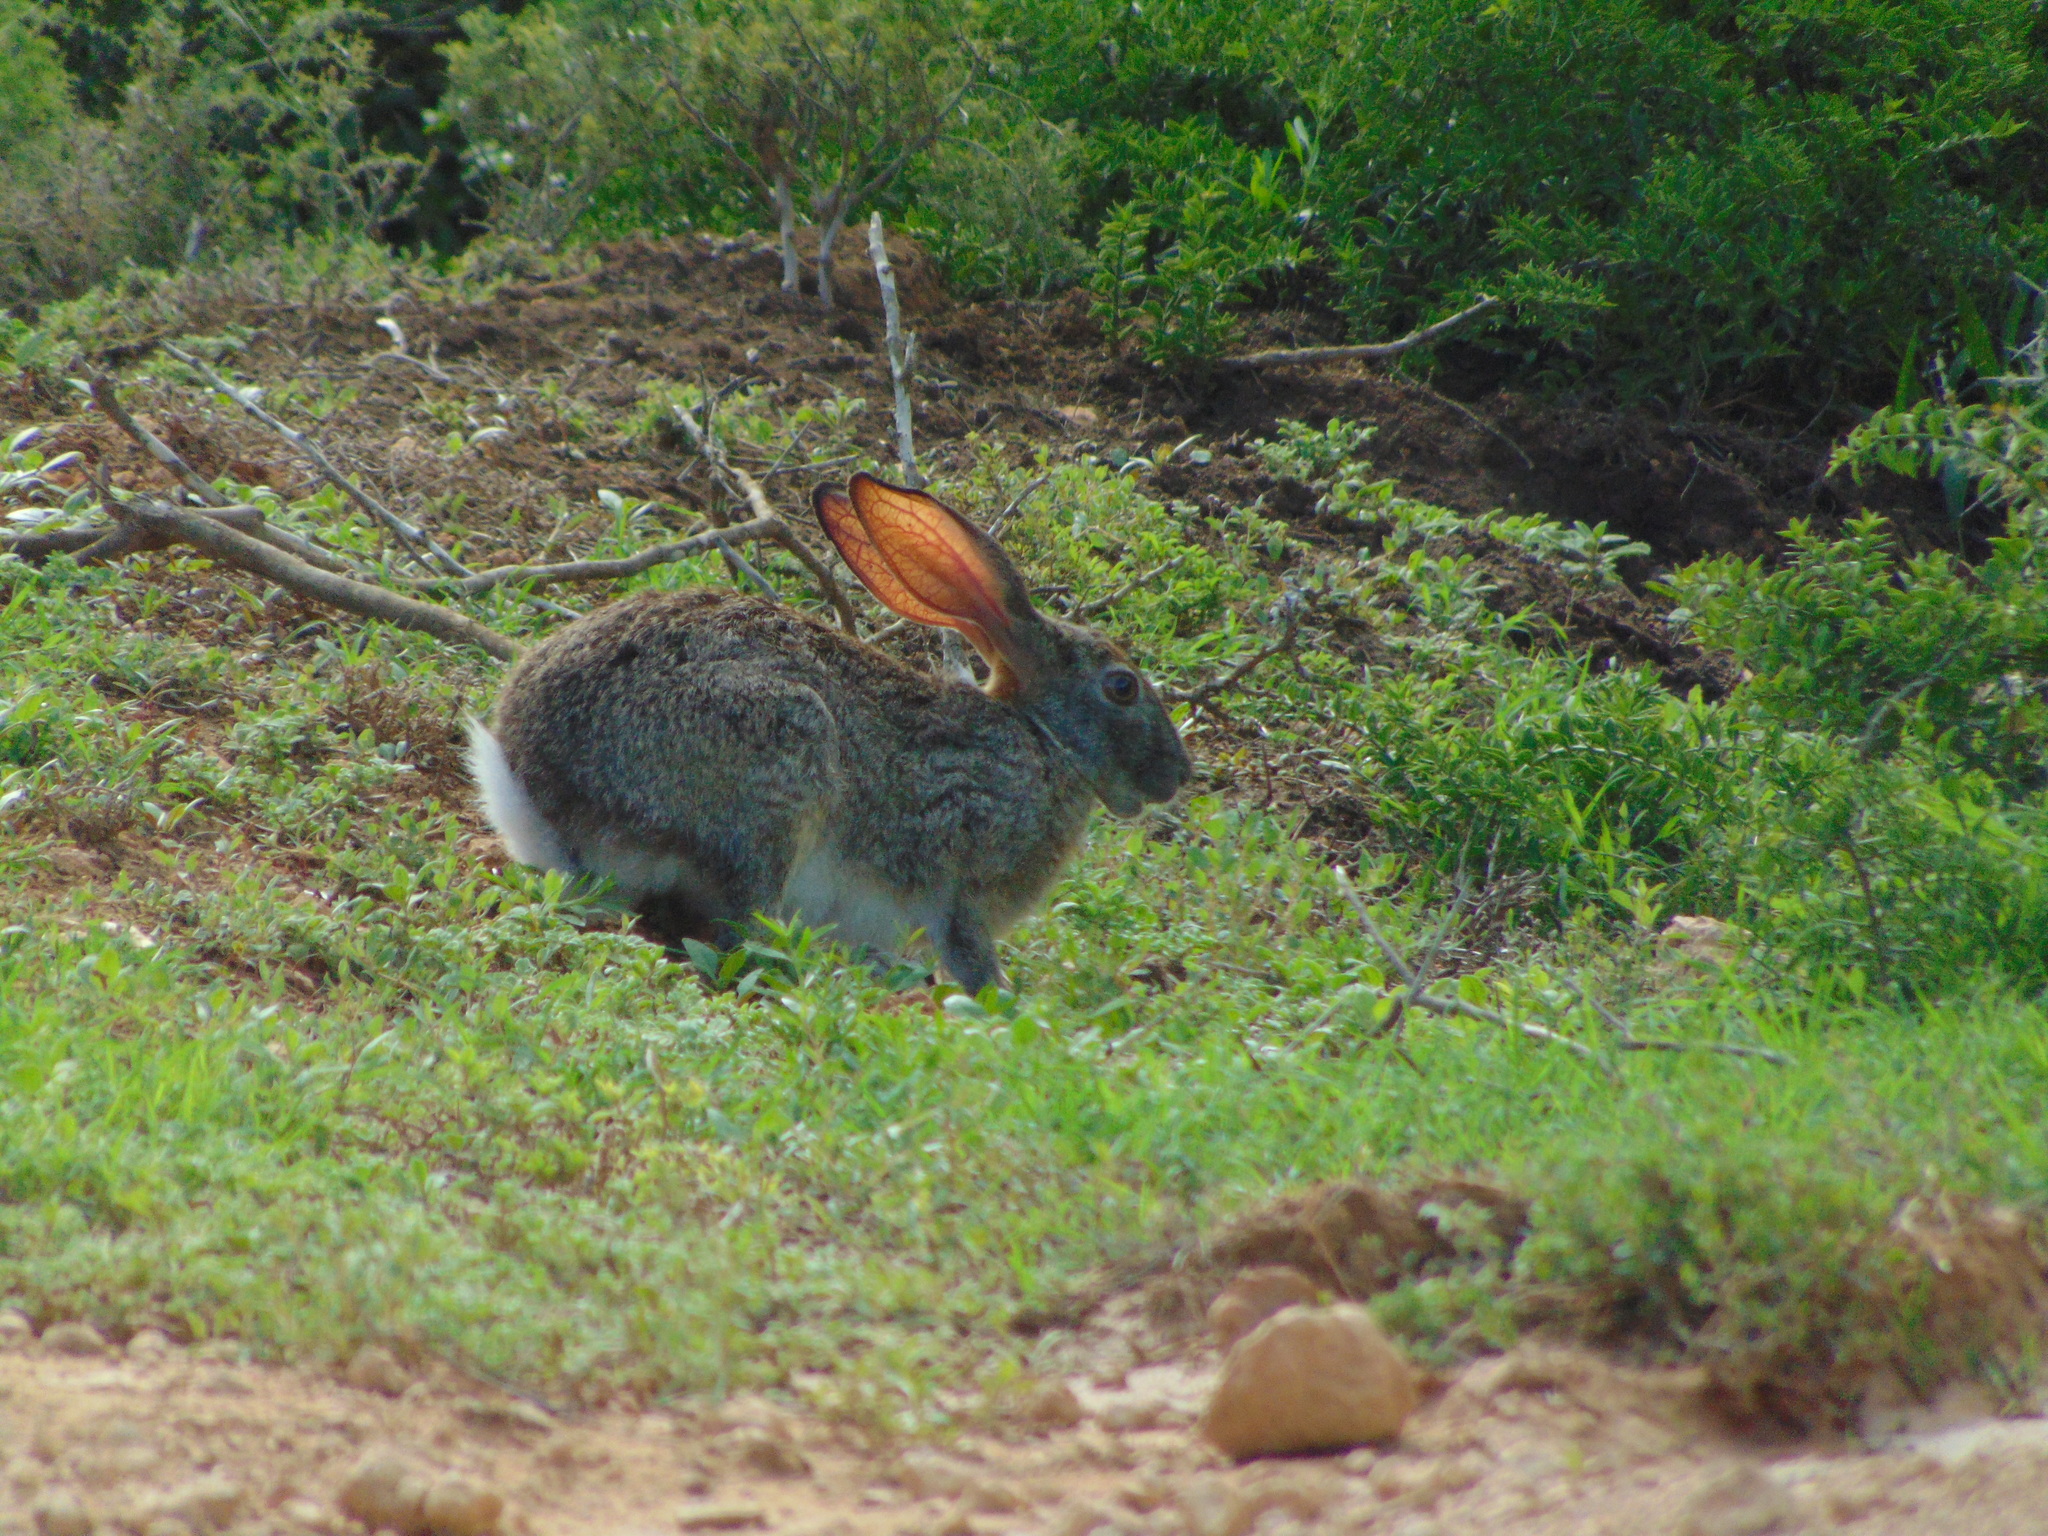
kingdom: Animalia
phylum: Chordata
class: Mammalia
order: Lagomorpha
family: Leporidae
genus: Lepus
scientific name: Lepus saxatilis
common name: Scrub hare
